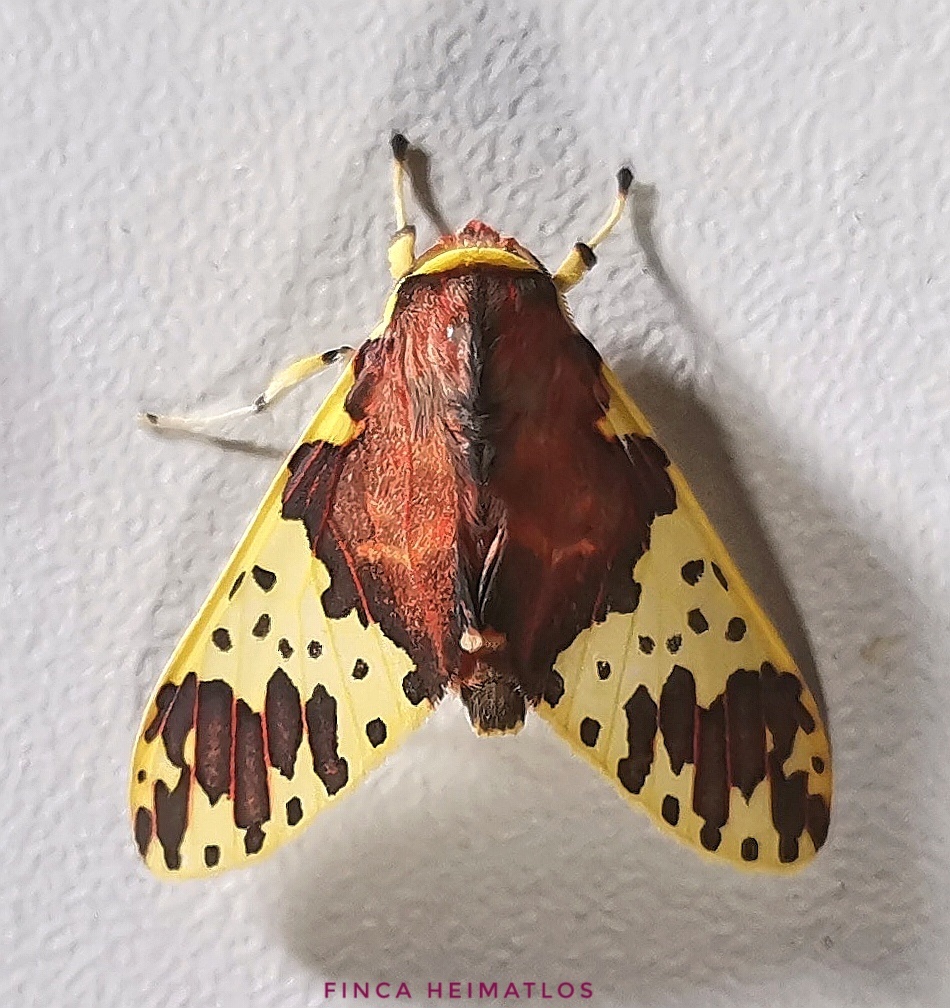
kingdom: Animalia
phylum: Arthropoda
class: Insecta
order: Lepidoptera
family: Erebidae
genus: Amaxia
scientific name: Amaxia carinosa
